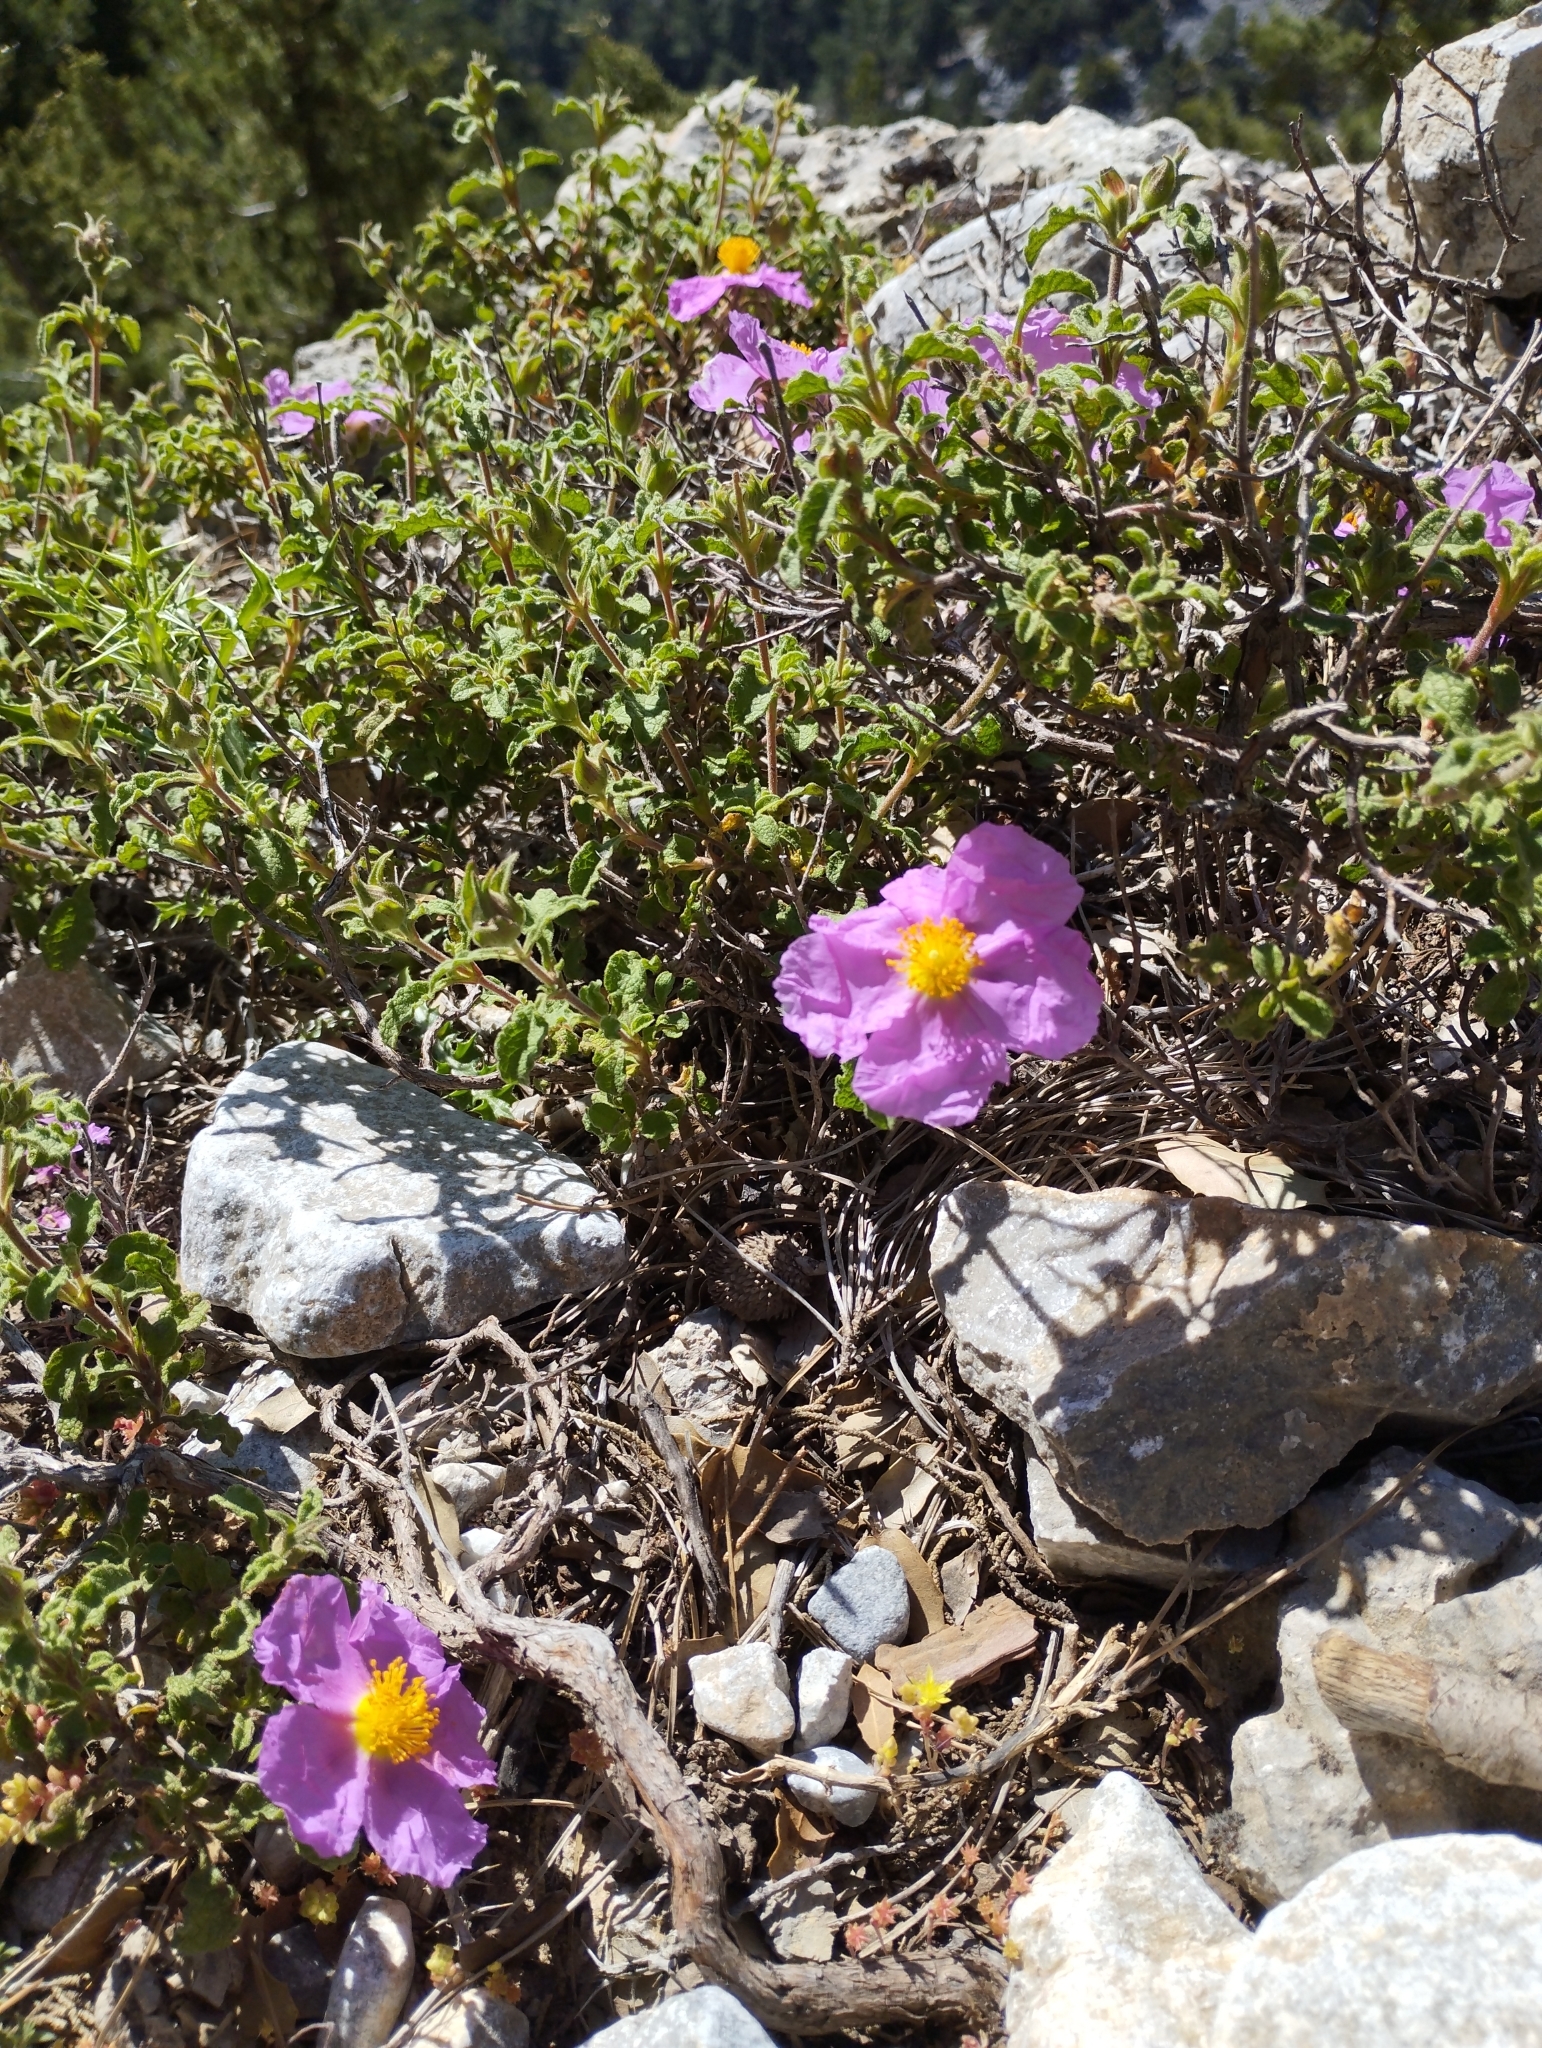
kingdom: Plantae
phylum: Tracheophyta
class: Magnoliopsida
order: Malvales
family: Cistaceae
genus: Cistus
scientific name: Cistus creticus
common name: Cretan rockrose
